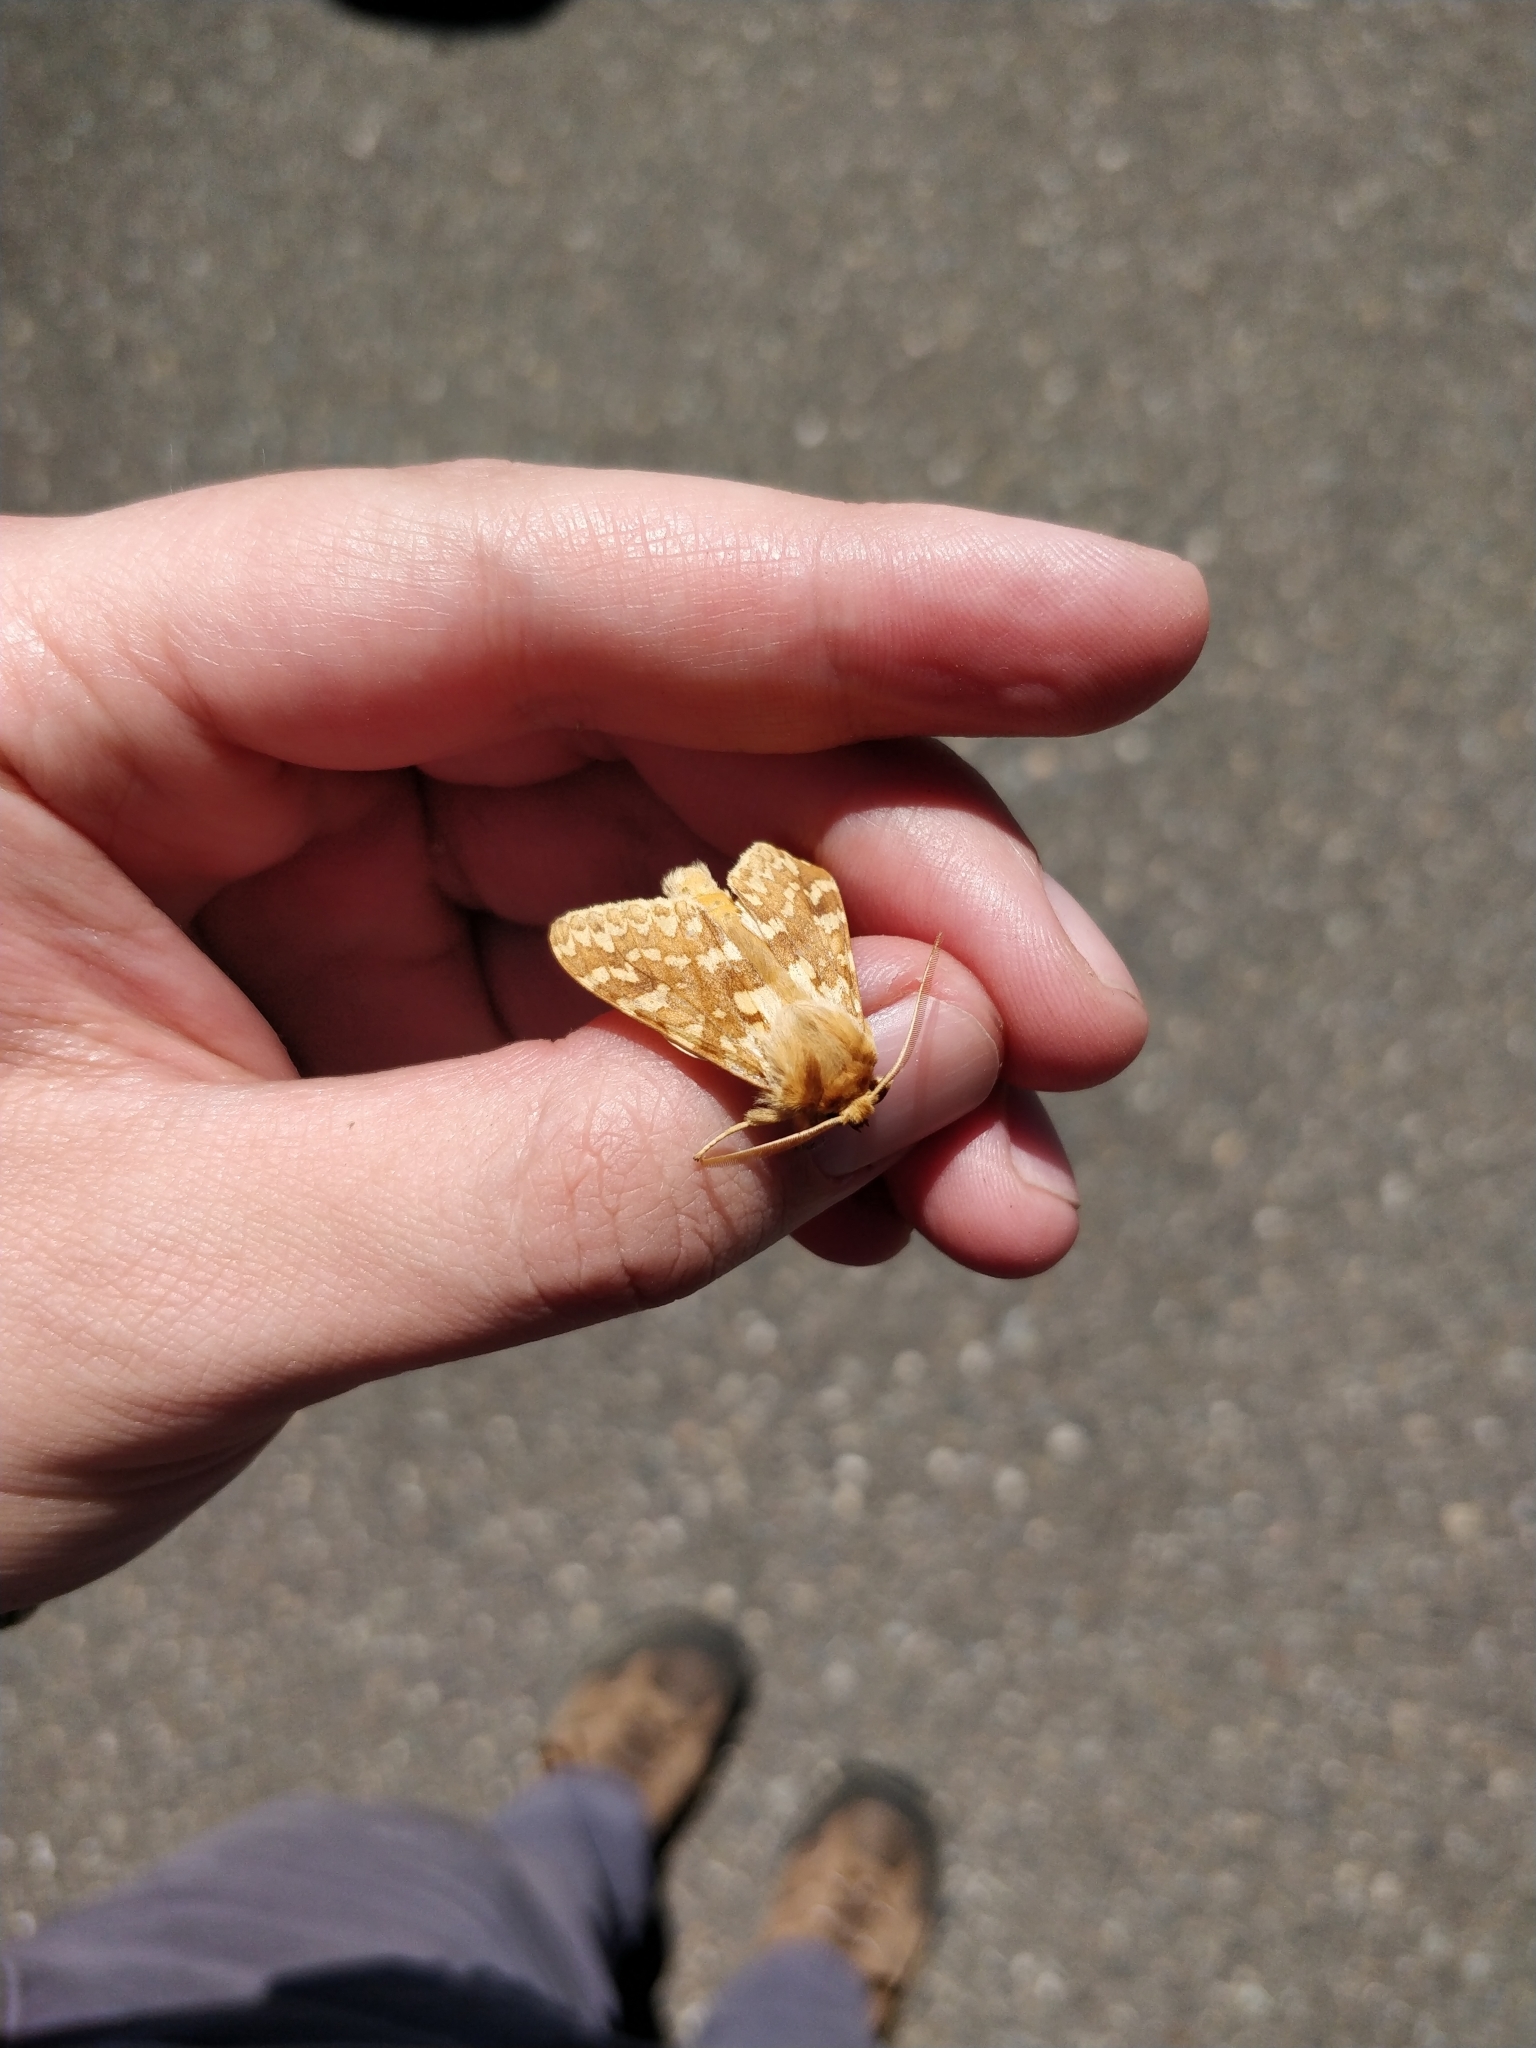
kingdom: Animalia
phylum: Arthropoda
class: Insecta
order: Lepidoptera
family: Erebidae
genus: Lophocampa
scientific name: Lophocampa maculata
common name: Spotted tussock moth
